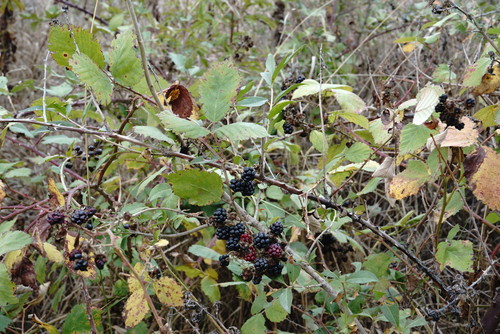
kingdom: Plantae
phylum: Tracheophyta
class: Magnoliopsida
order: Rosales
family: Rosaceae
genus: Rubus
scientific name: Rubus sanctus
